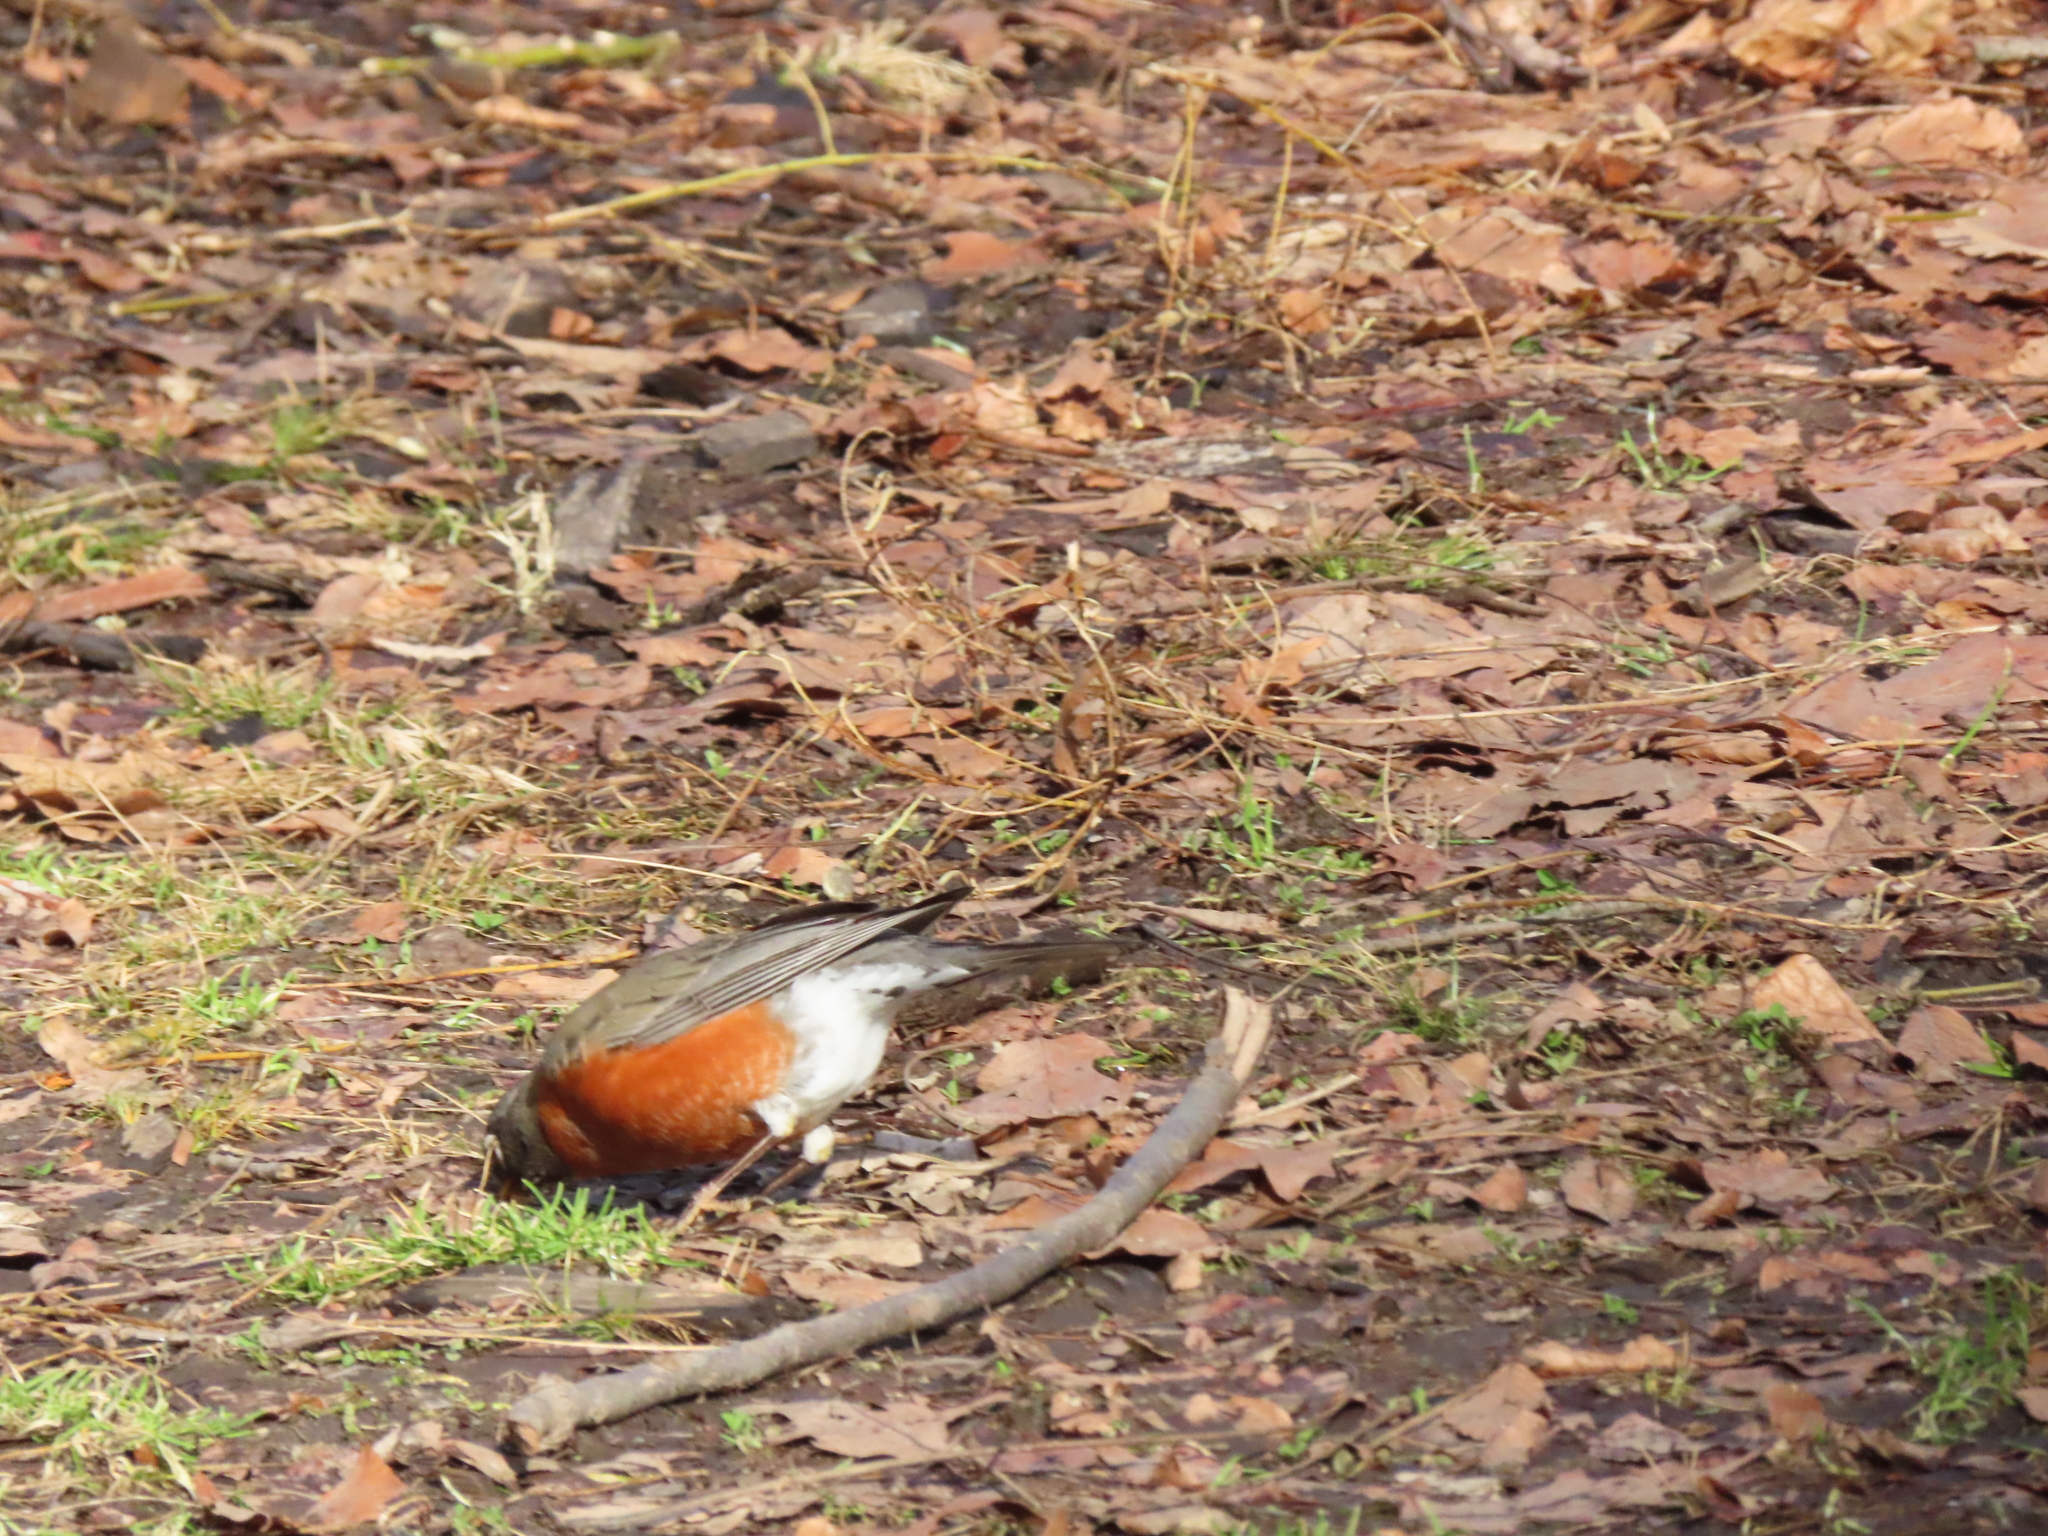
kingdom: Animalia
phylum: Chordata
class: Aves
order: Passeriformes
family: Turdidae
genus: Turdus
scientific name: Turdus migratorius
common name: American robin
